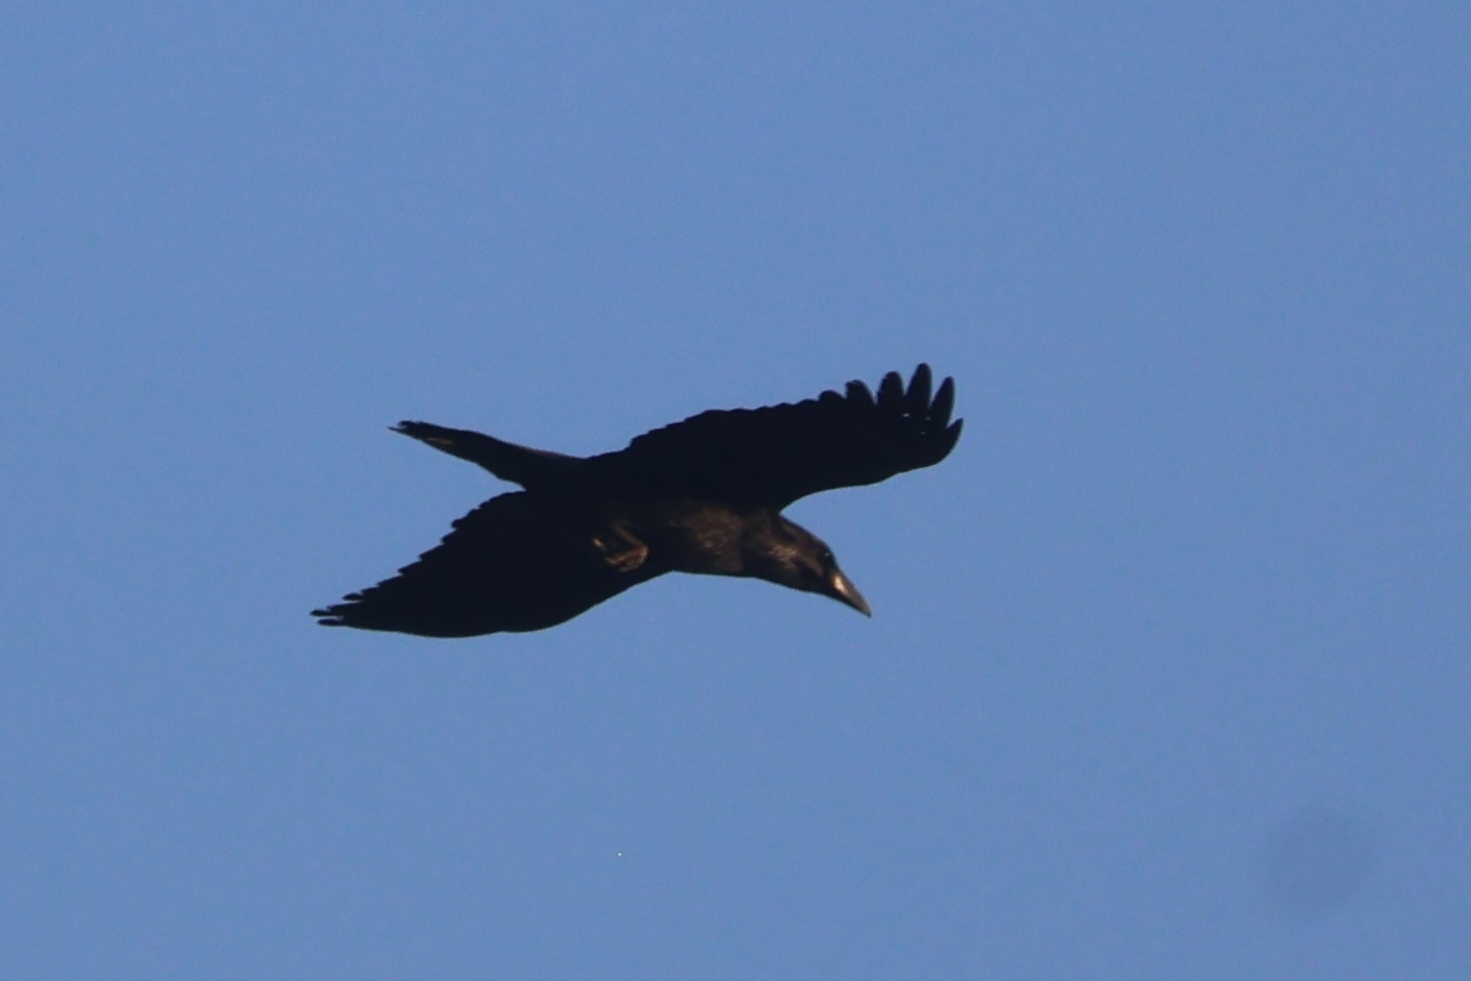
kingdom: Animalia
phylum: Chordata
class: Aves
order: Passeriformes
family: Corvidae
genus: Corvus
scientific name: Corvus corax
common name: Common raven
